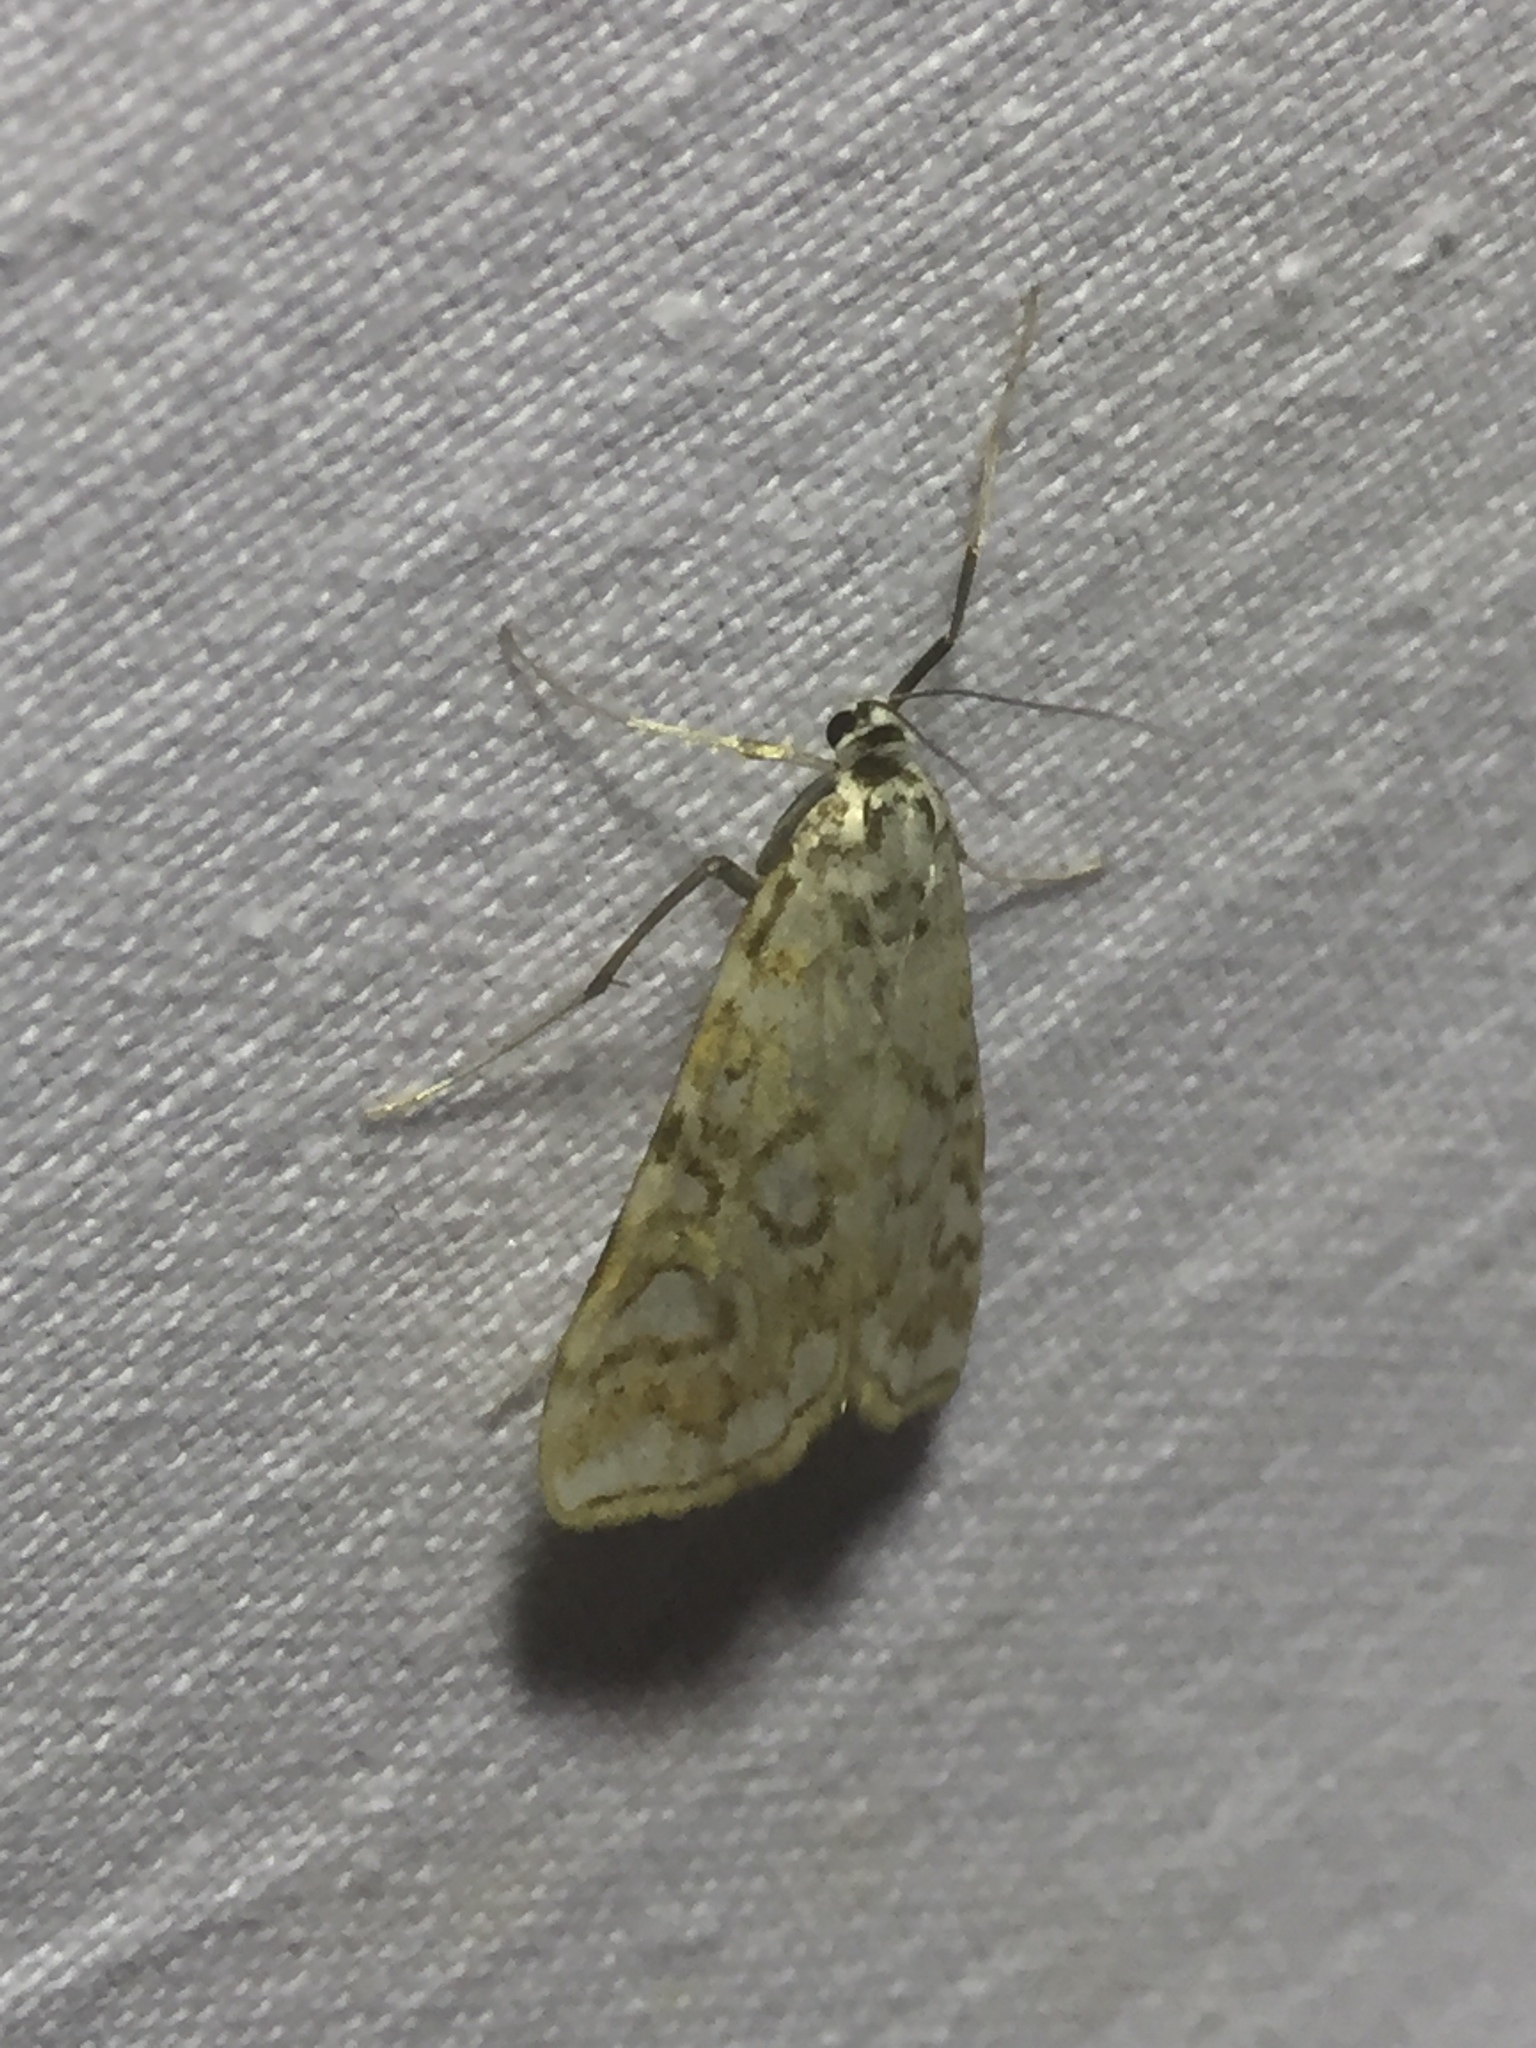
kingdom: Animalia
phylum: Arthropoda
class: Insecta
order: Lepidoptera
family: Crambidae
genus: Elophila
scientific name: Elophila nymphaeata
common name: Brown china-mark
